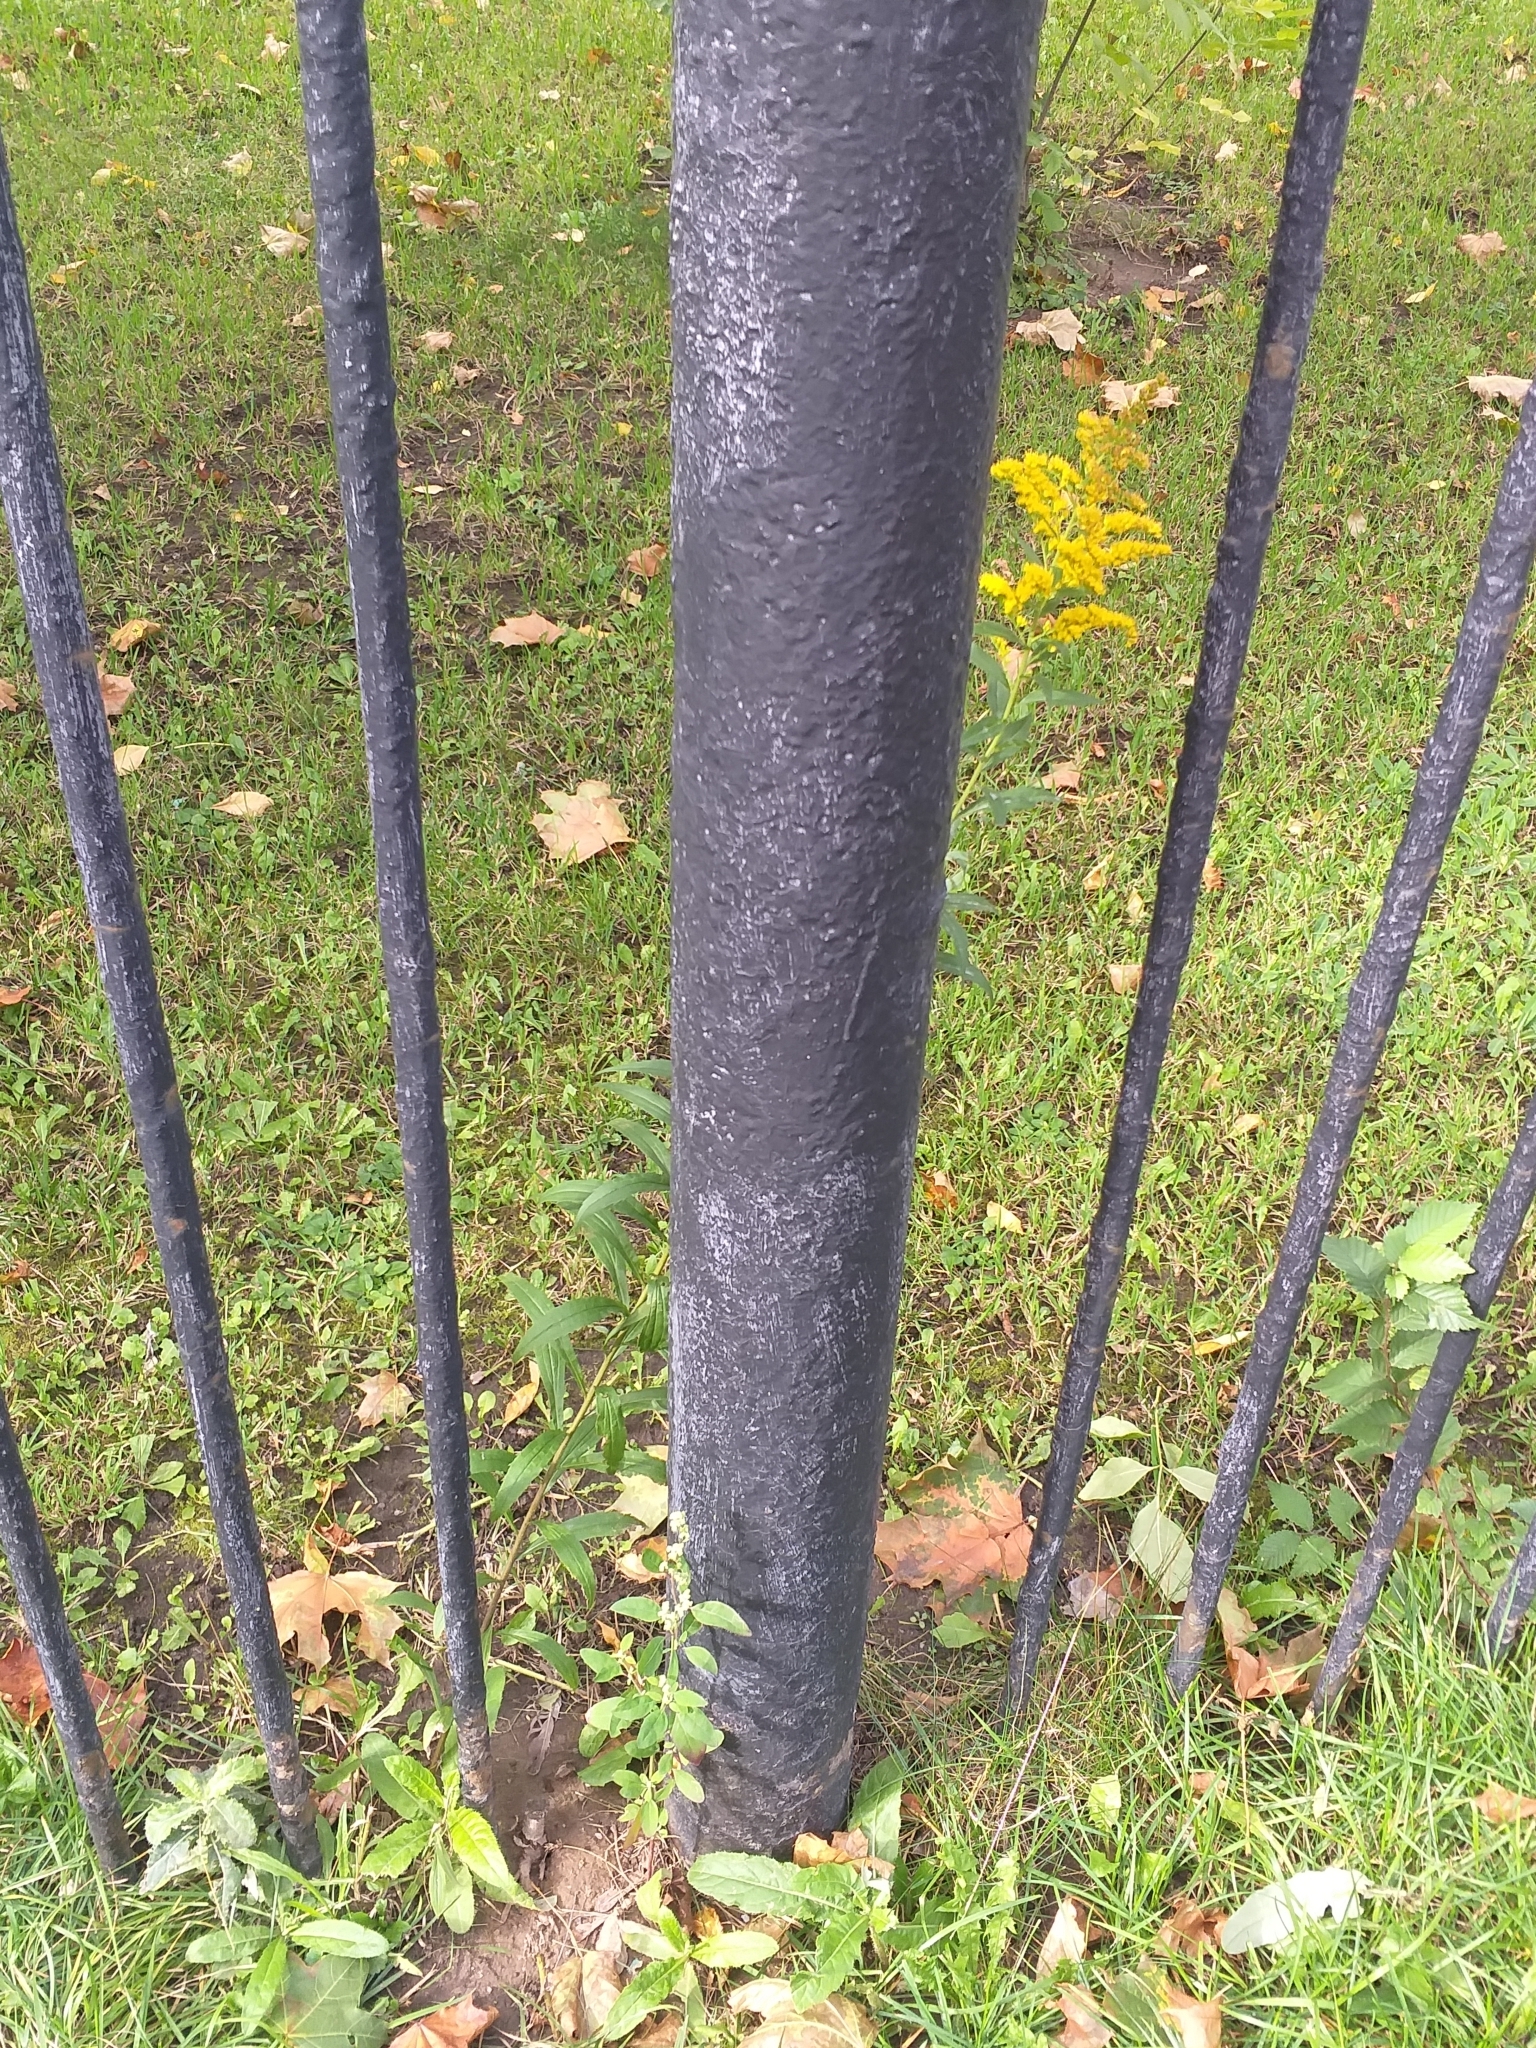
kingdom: Plantae
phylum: Tracheophyta
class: Magnoliopsida
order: Asterales
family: Asteraceae
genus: Solidago
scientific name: Solidago canadensis
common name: Canada goldenrod
